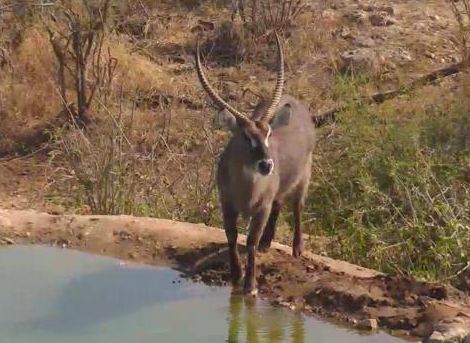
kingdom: Animalia
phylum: Chordata
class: Mammalia
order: Artiodactyla
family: Bovidae
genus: Kobus
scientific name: Kobus ellipsiprymnus
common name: Waterbuck
